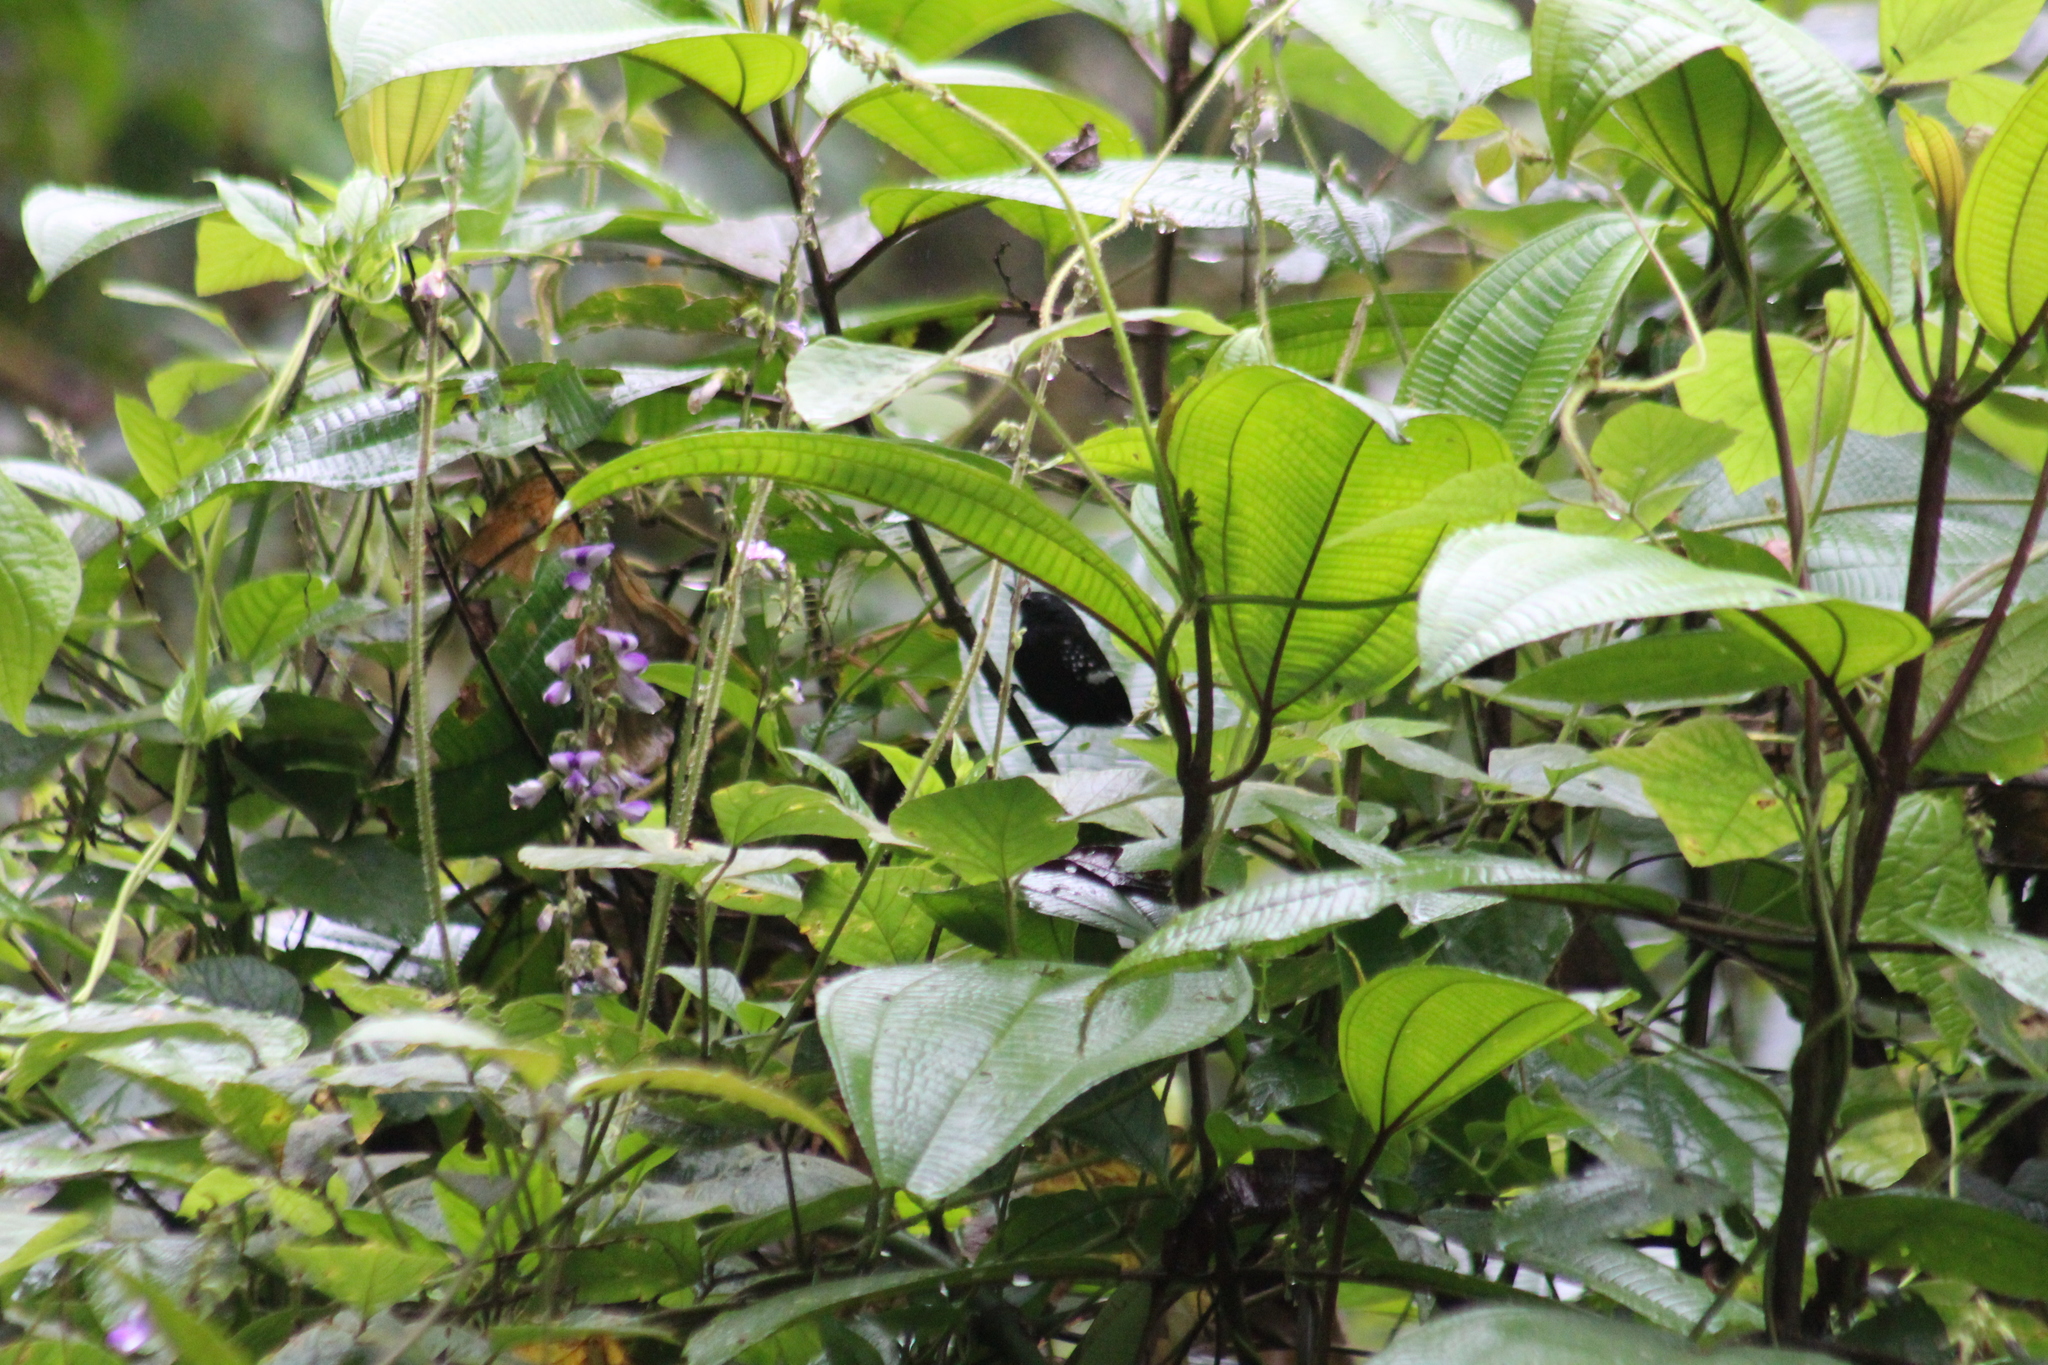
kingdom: Animalia
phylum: Chordata
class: Aves
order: Passeriformes
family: Thamnophilidae
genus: Microrhopias
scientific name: Microrhopias quixensis
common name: Dot-winged antwren
